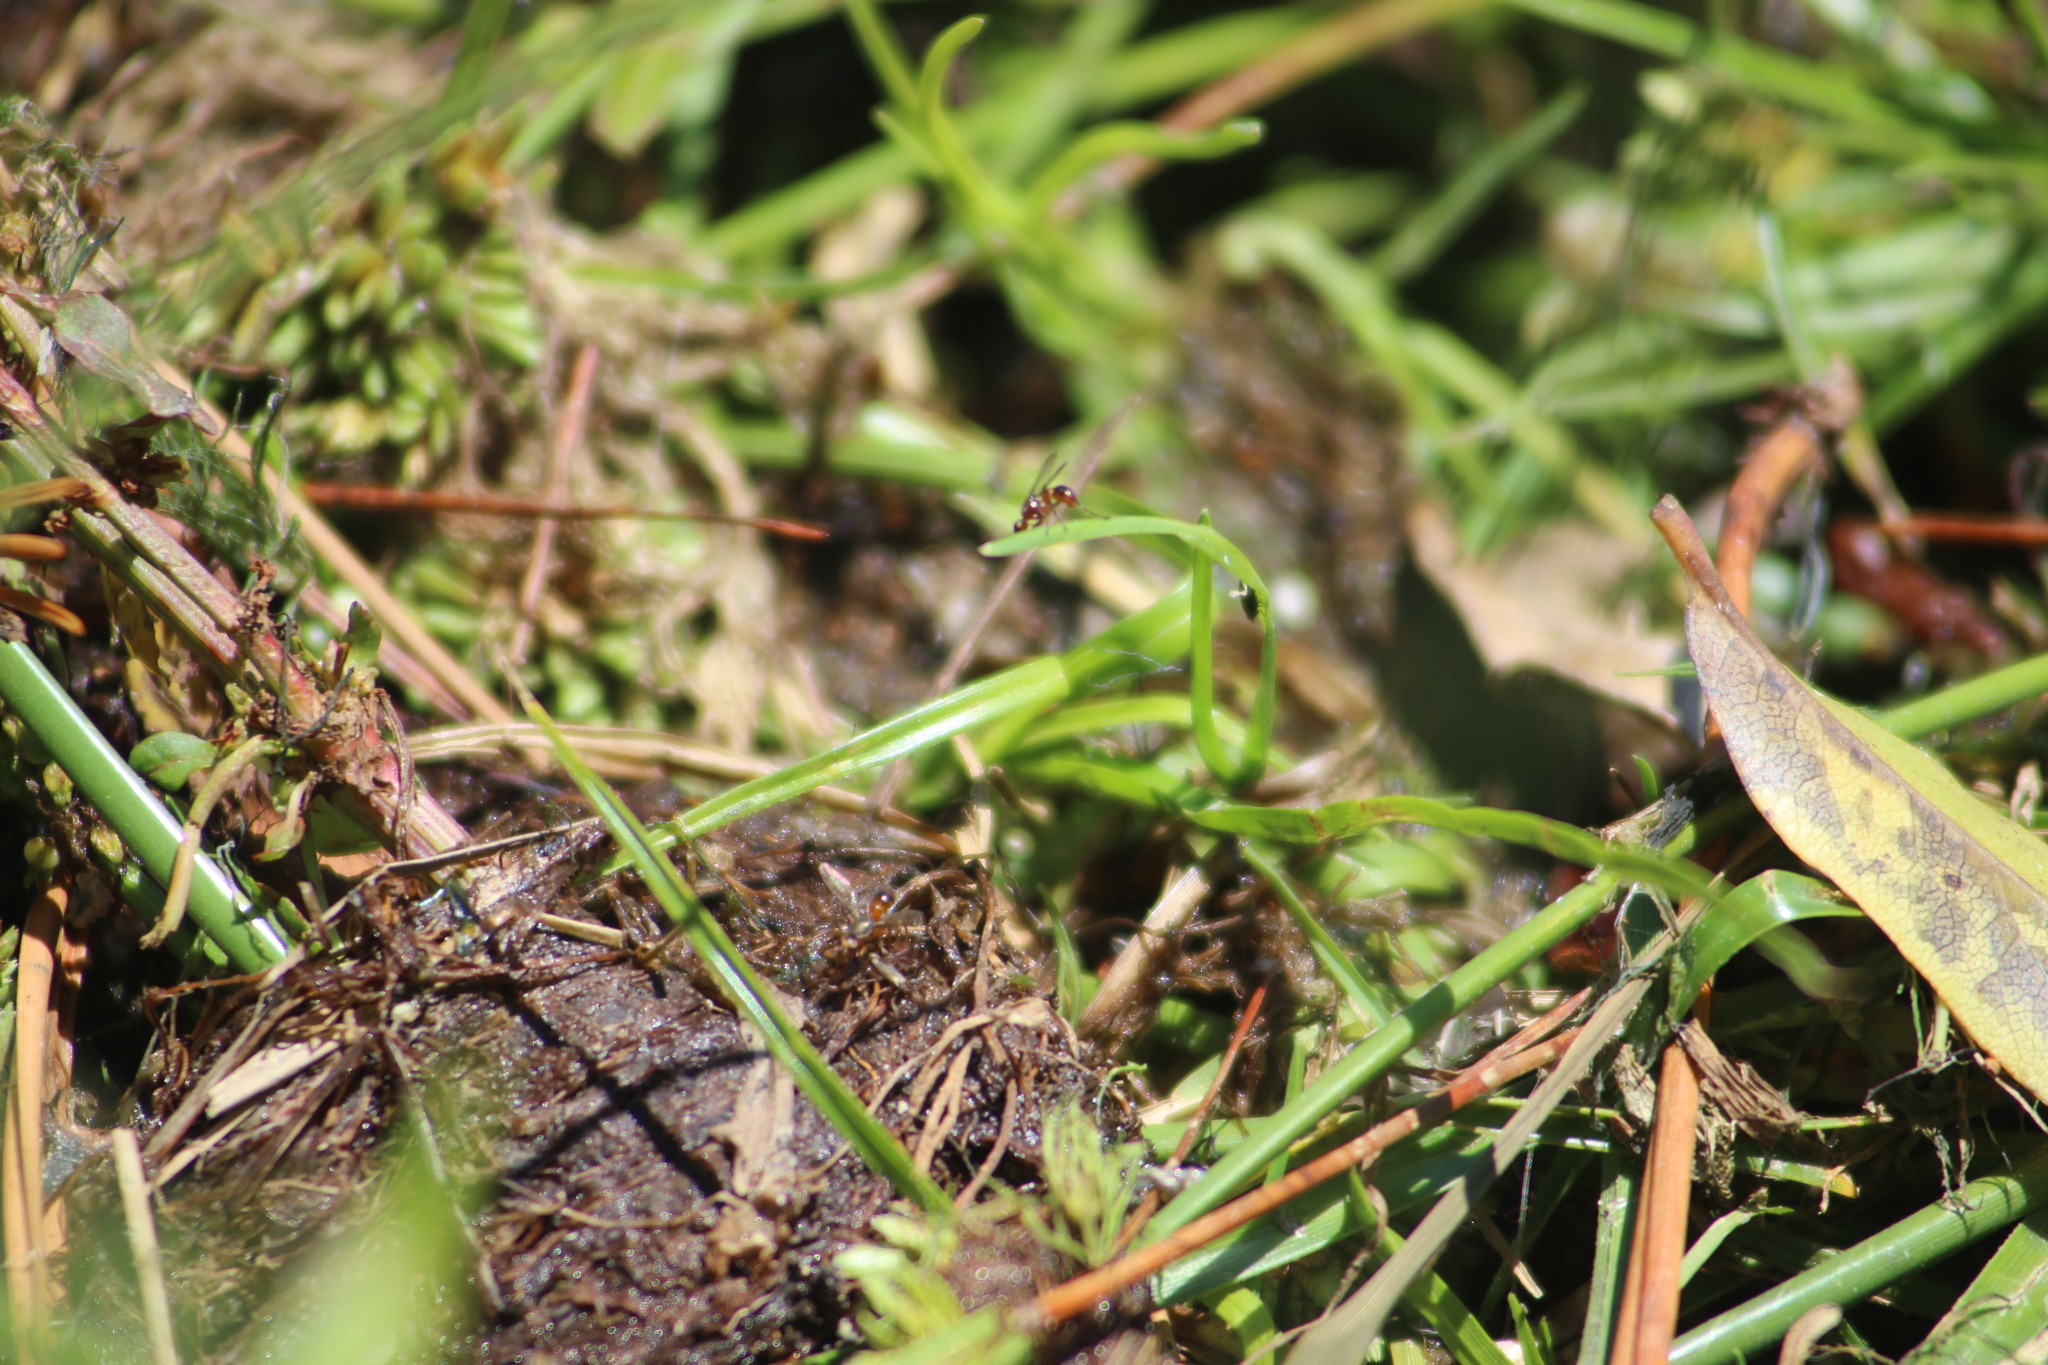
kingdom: Animalia
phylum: Arthropoda
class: Insecta
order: Diptera
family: Sepsidae
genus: Lasionemopoda
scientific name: Lasionemopoda hirsuta
